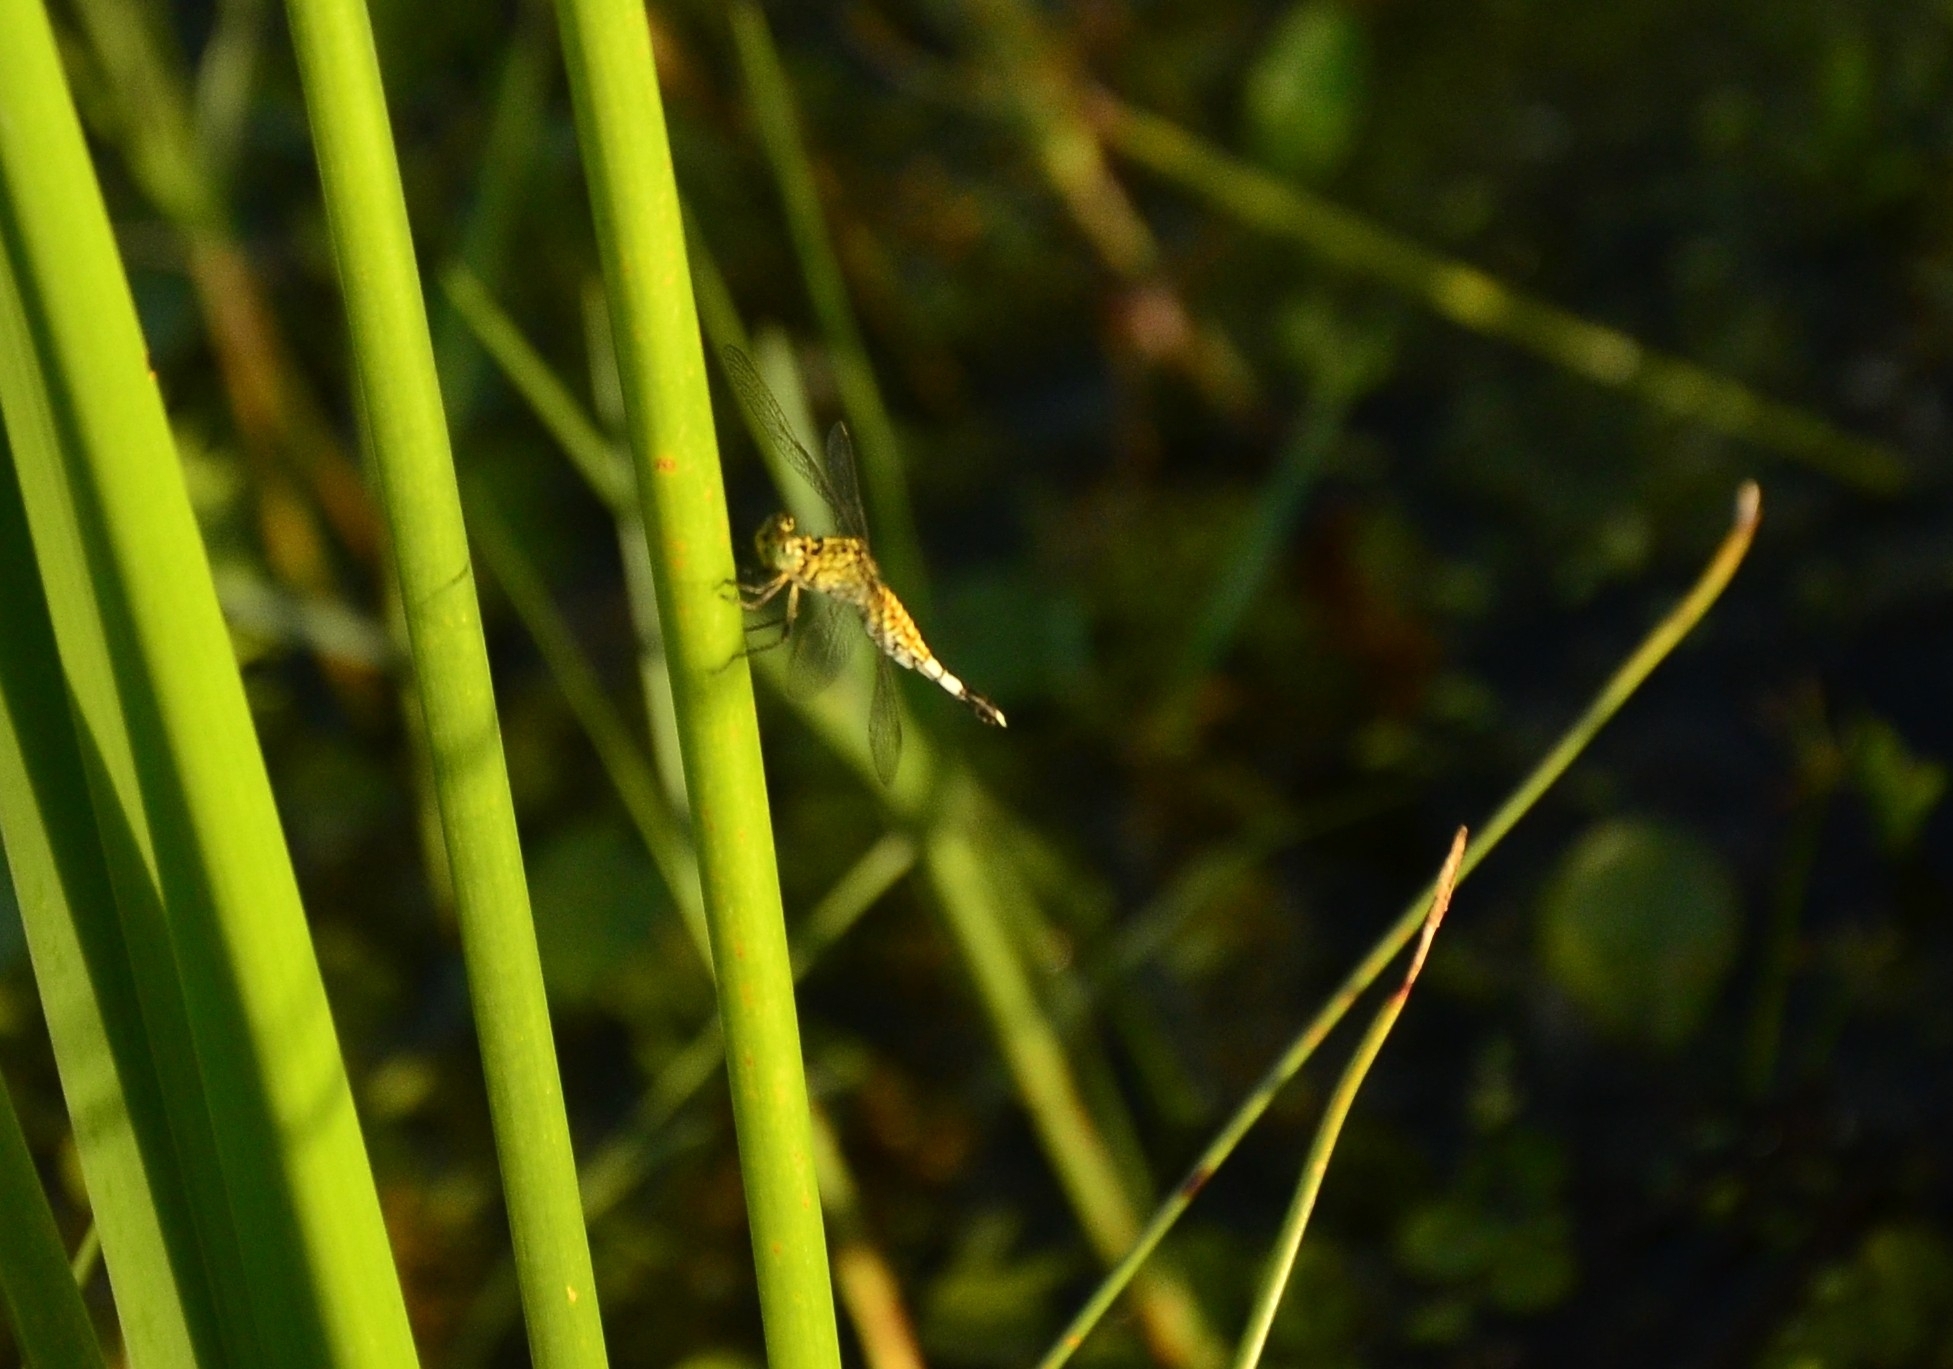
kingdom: Animalia
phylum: Arthropoda
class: Insecta
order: Odonata
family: Libellulidae
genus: Acisoma
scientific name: Acisoma panorpoides
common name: Asian pintail
